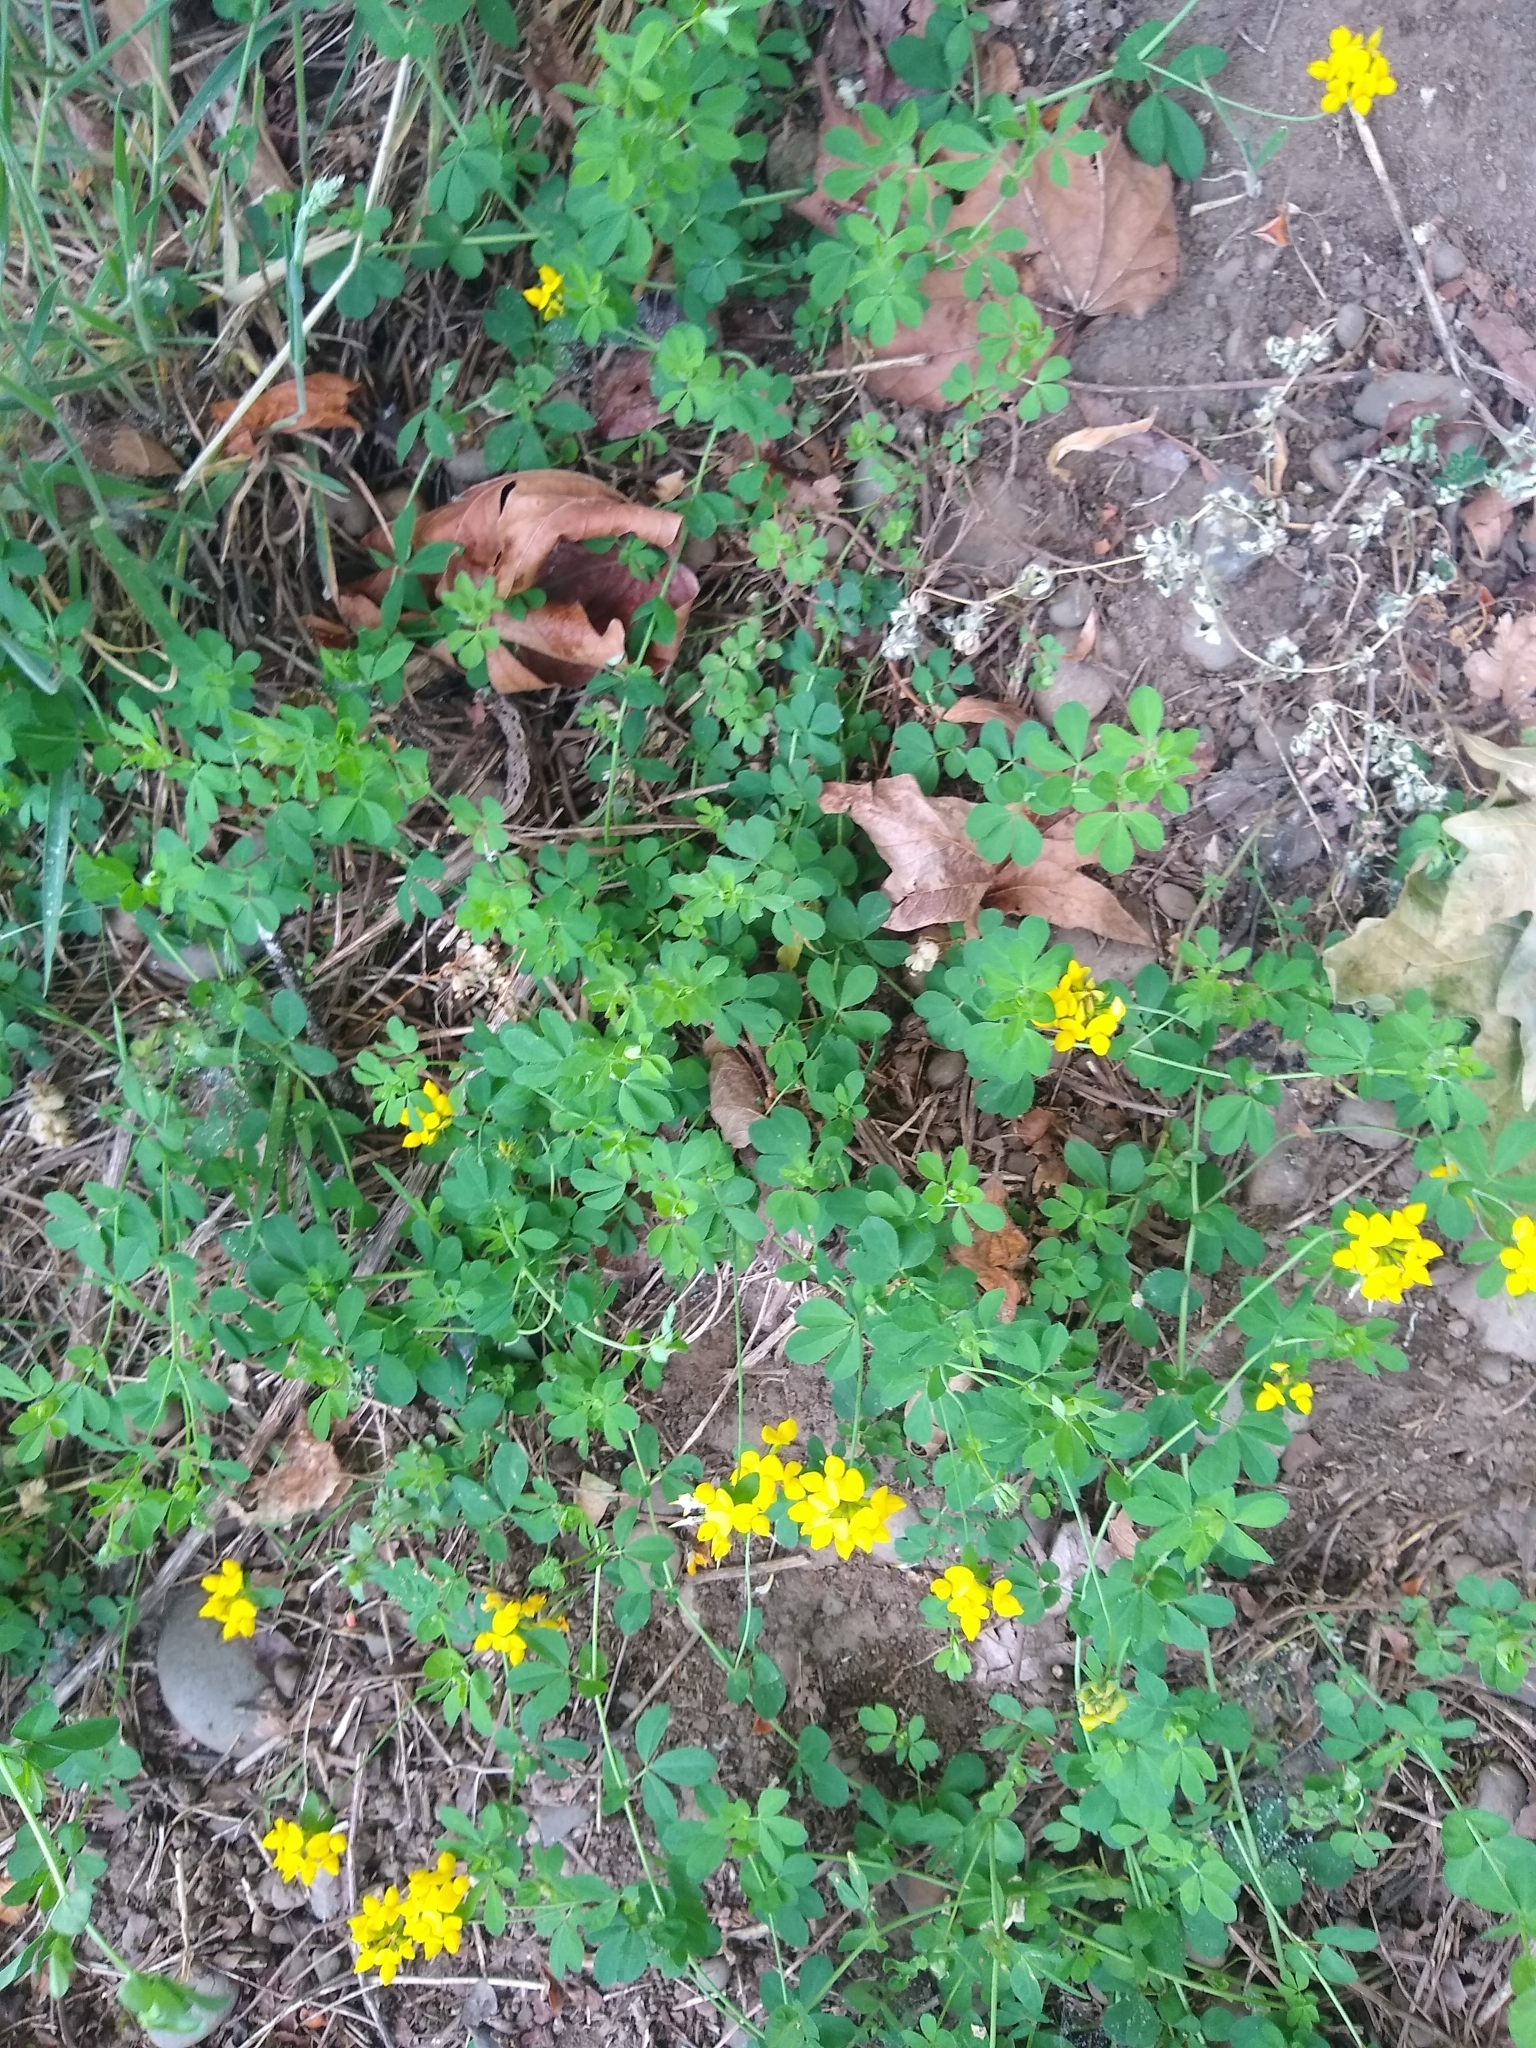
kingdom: Plantae
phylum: Tracheophyta
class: Magnoliopsida
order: Fabales
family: Fabaceae
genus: Lotus
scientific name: Lotus
